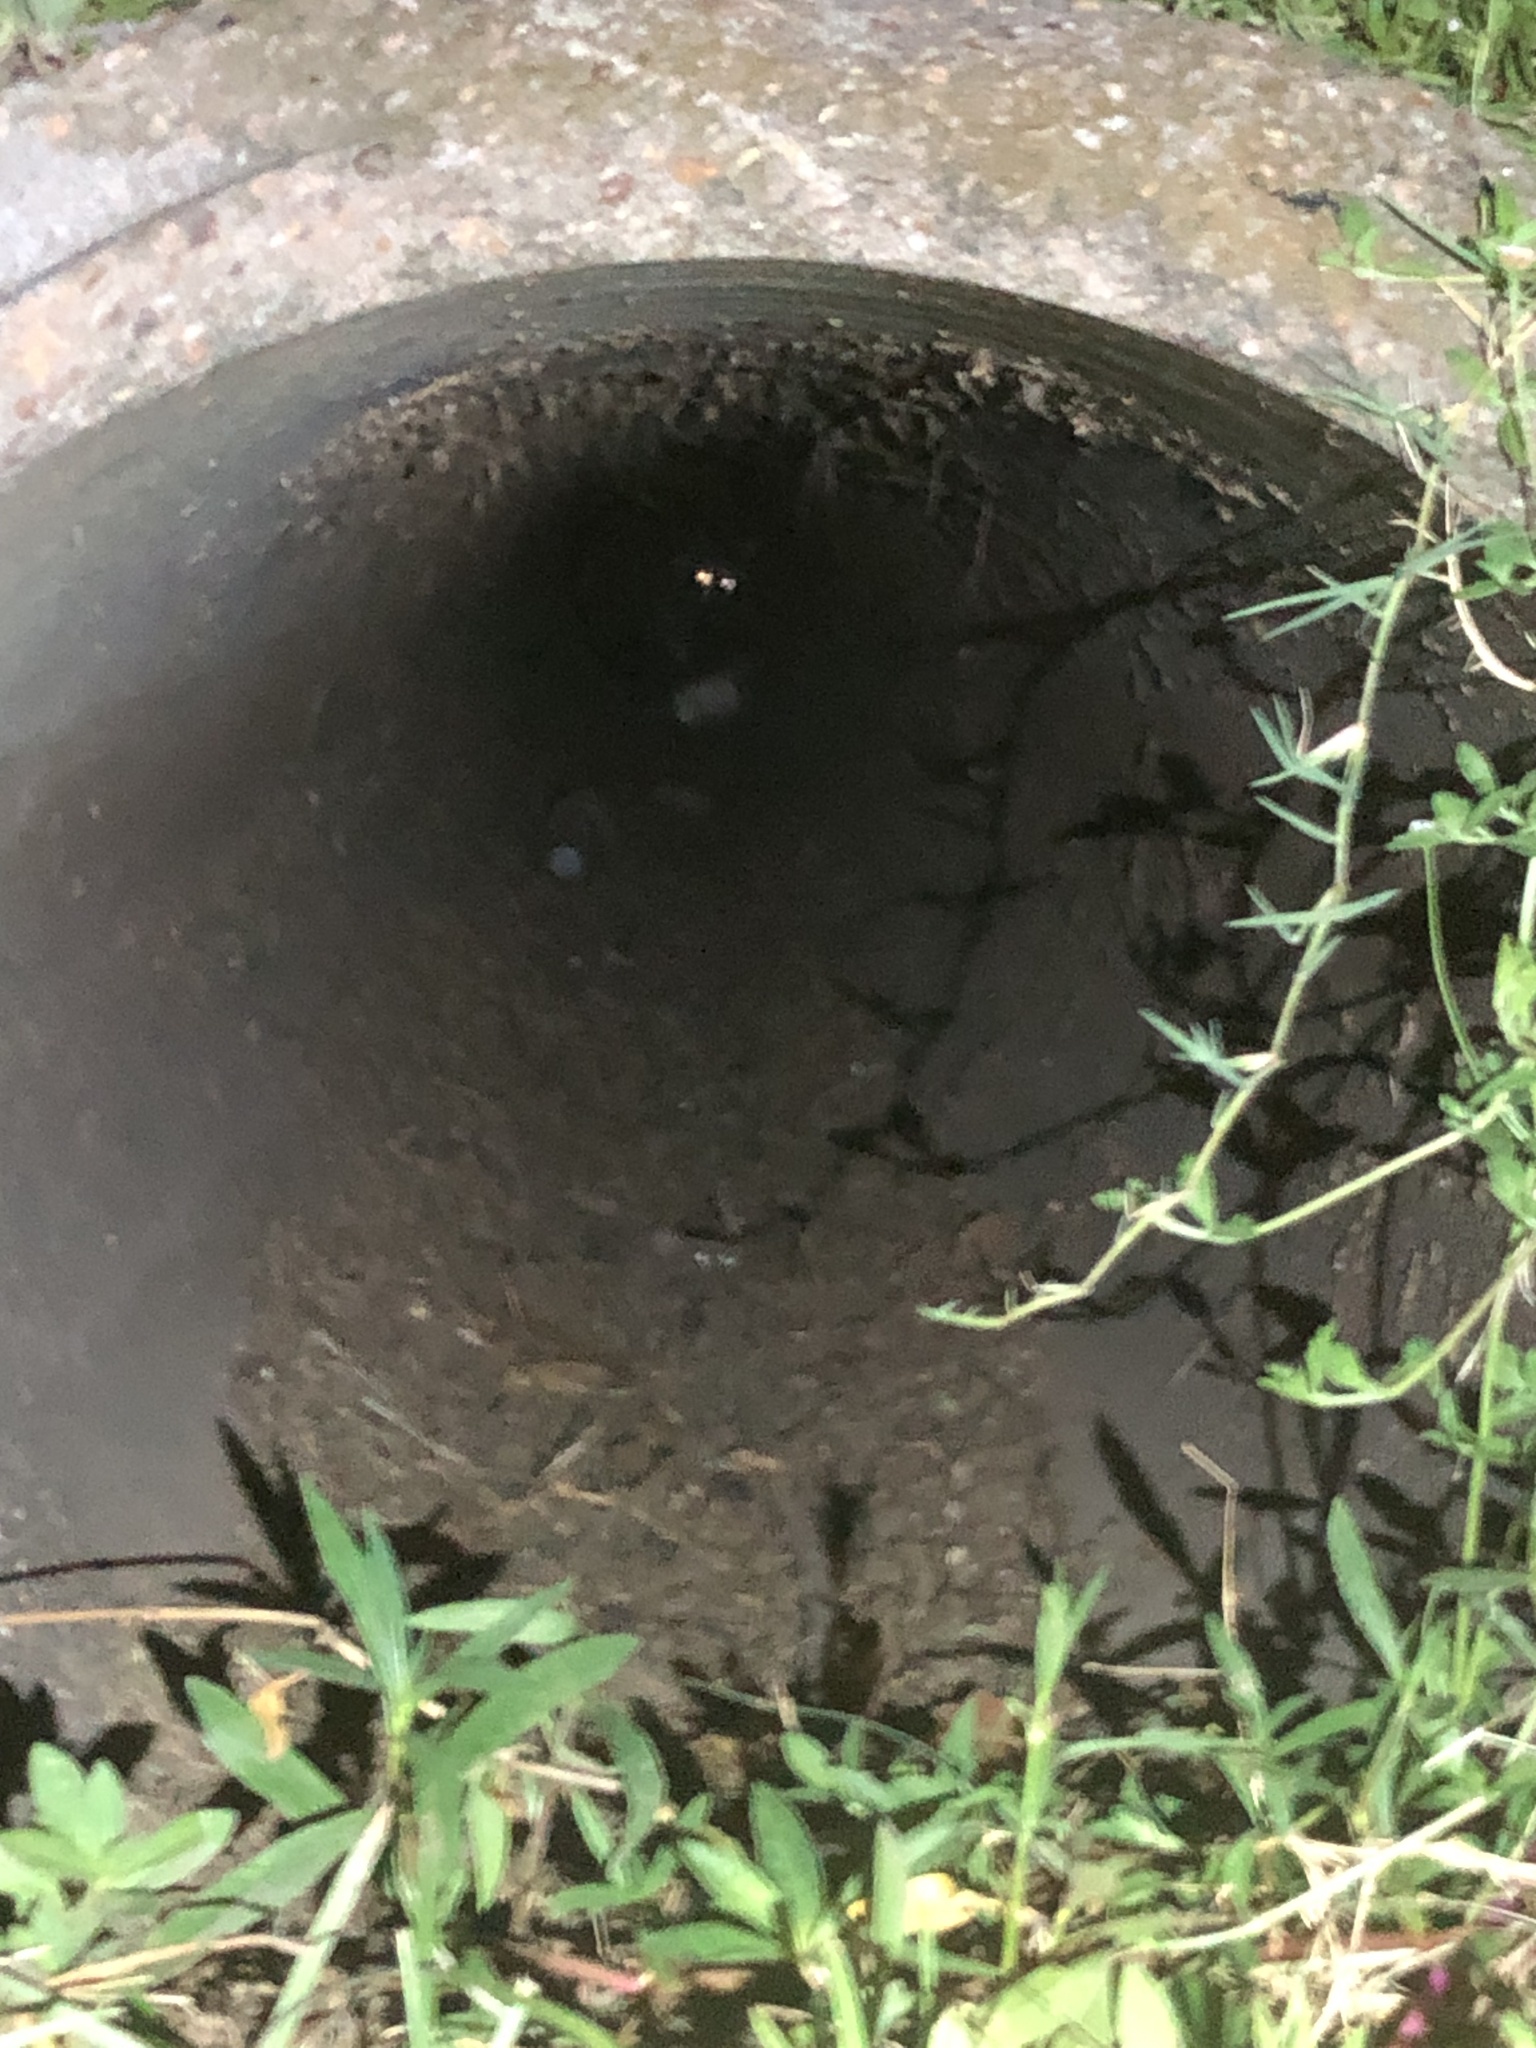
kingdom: Animalia
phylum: Chordata
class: Mammalia
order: Carnivora
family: Procyonidae
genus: Procyon
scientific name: Procyon lotor
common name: Raccoon
